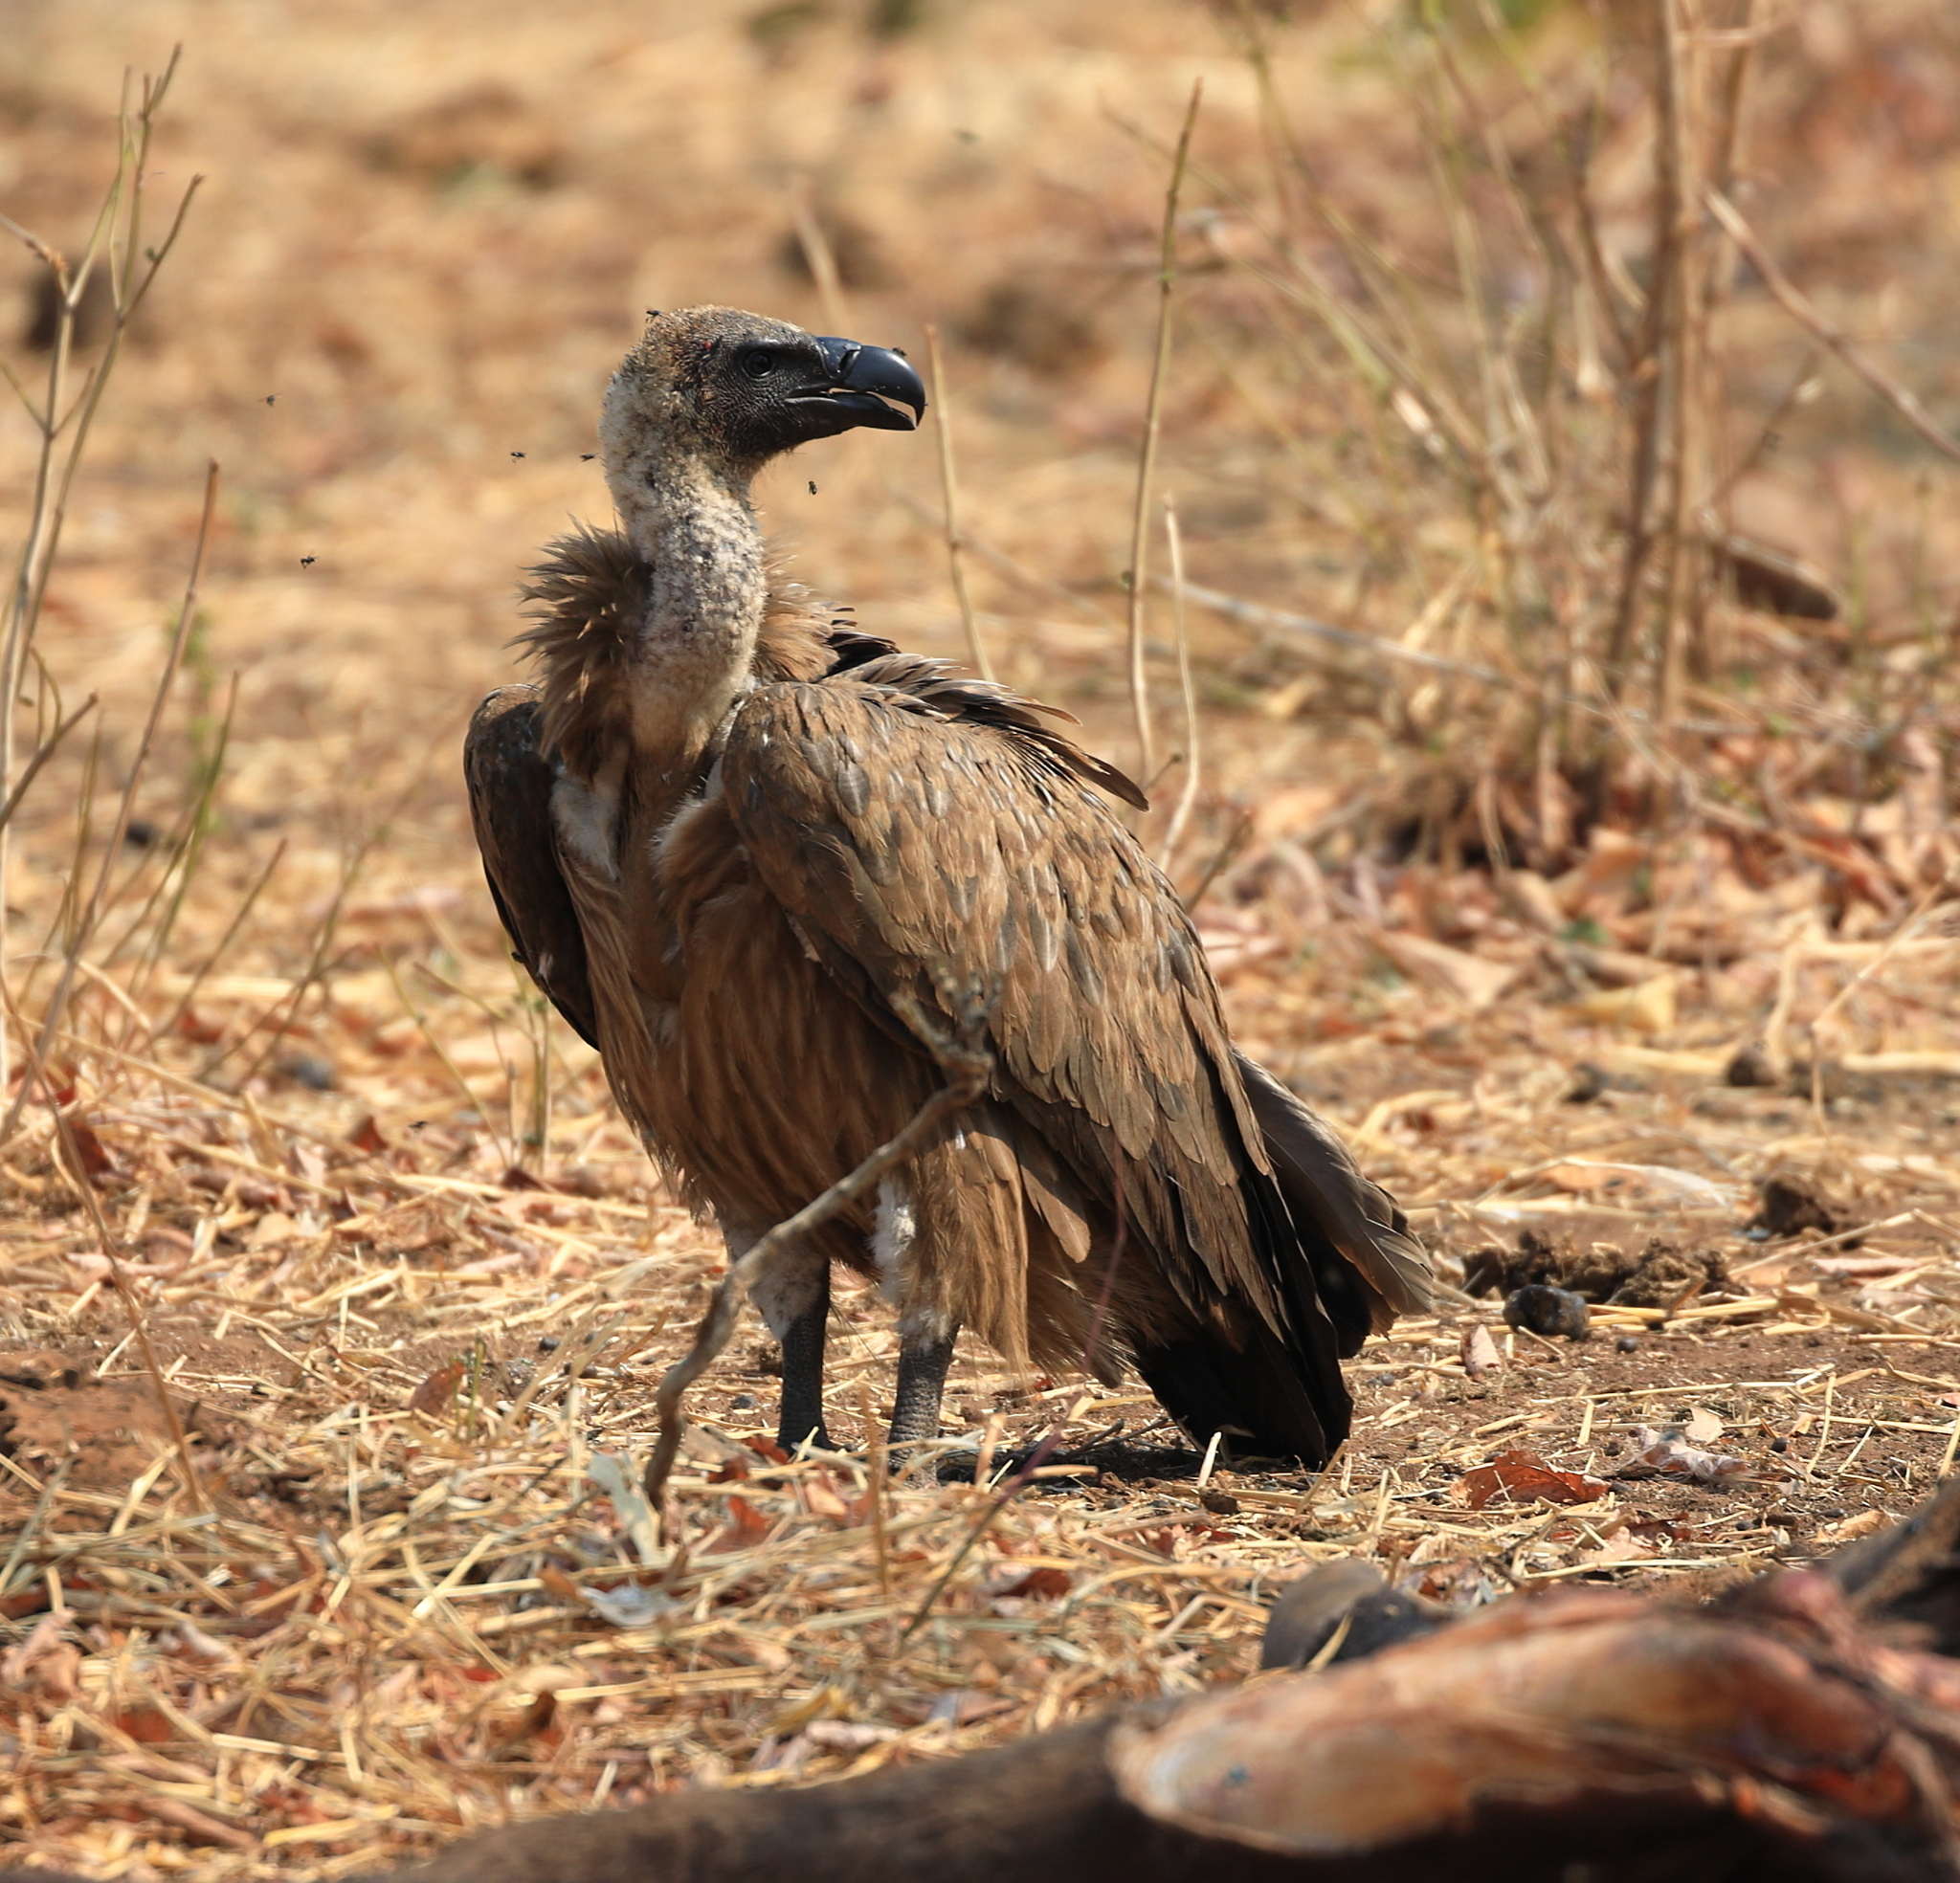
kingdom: Animalia
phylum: Chordata
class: Aves
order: Accipitriformes
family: Accipitridae
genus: Gyps
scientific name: Gyps africanus
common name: White-backed vulture
